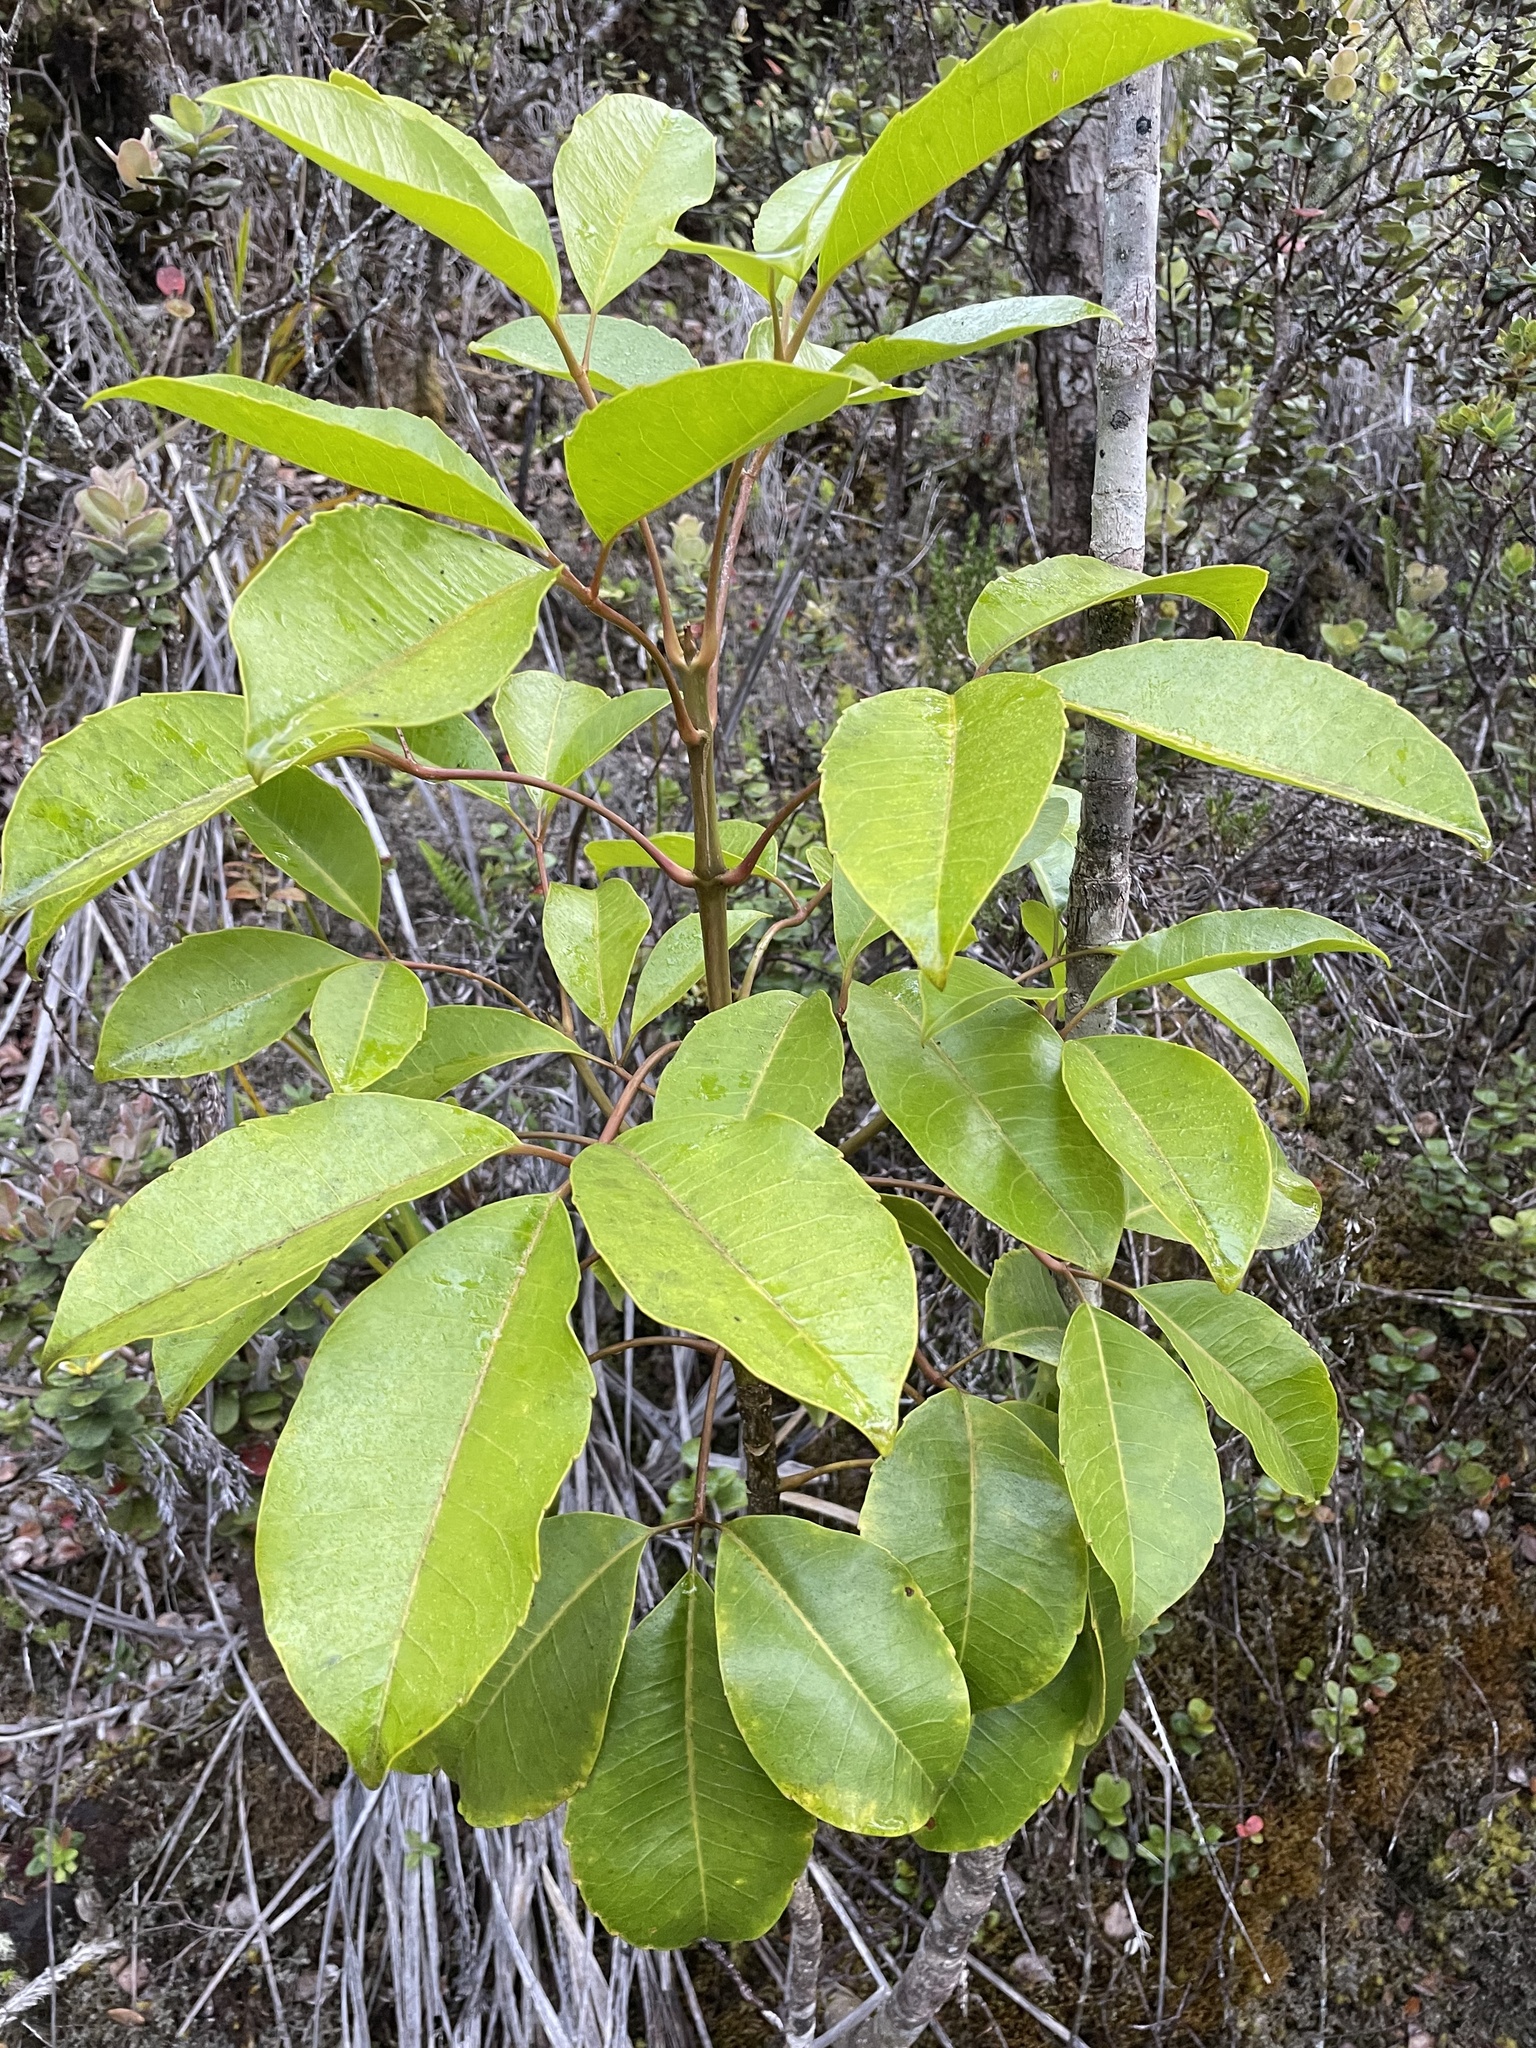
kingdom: Plantae
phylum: Tracheophyta
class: Magnoliopsida
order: Apiales
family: Araliaceae
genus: Cheirodendron
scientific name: Cheirodendron trigynum
